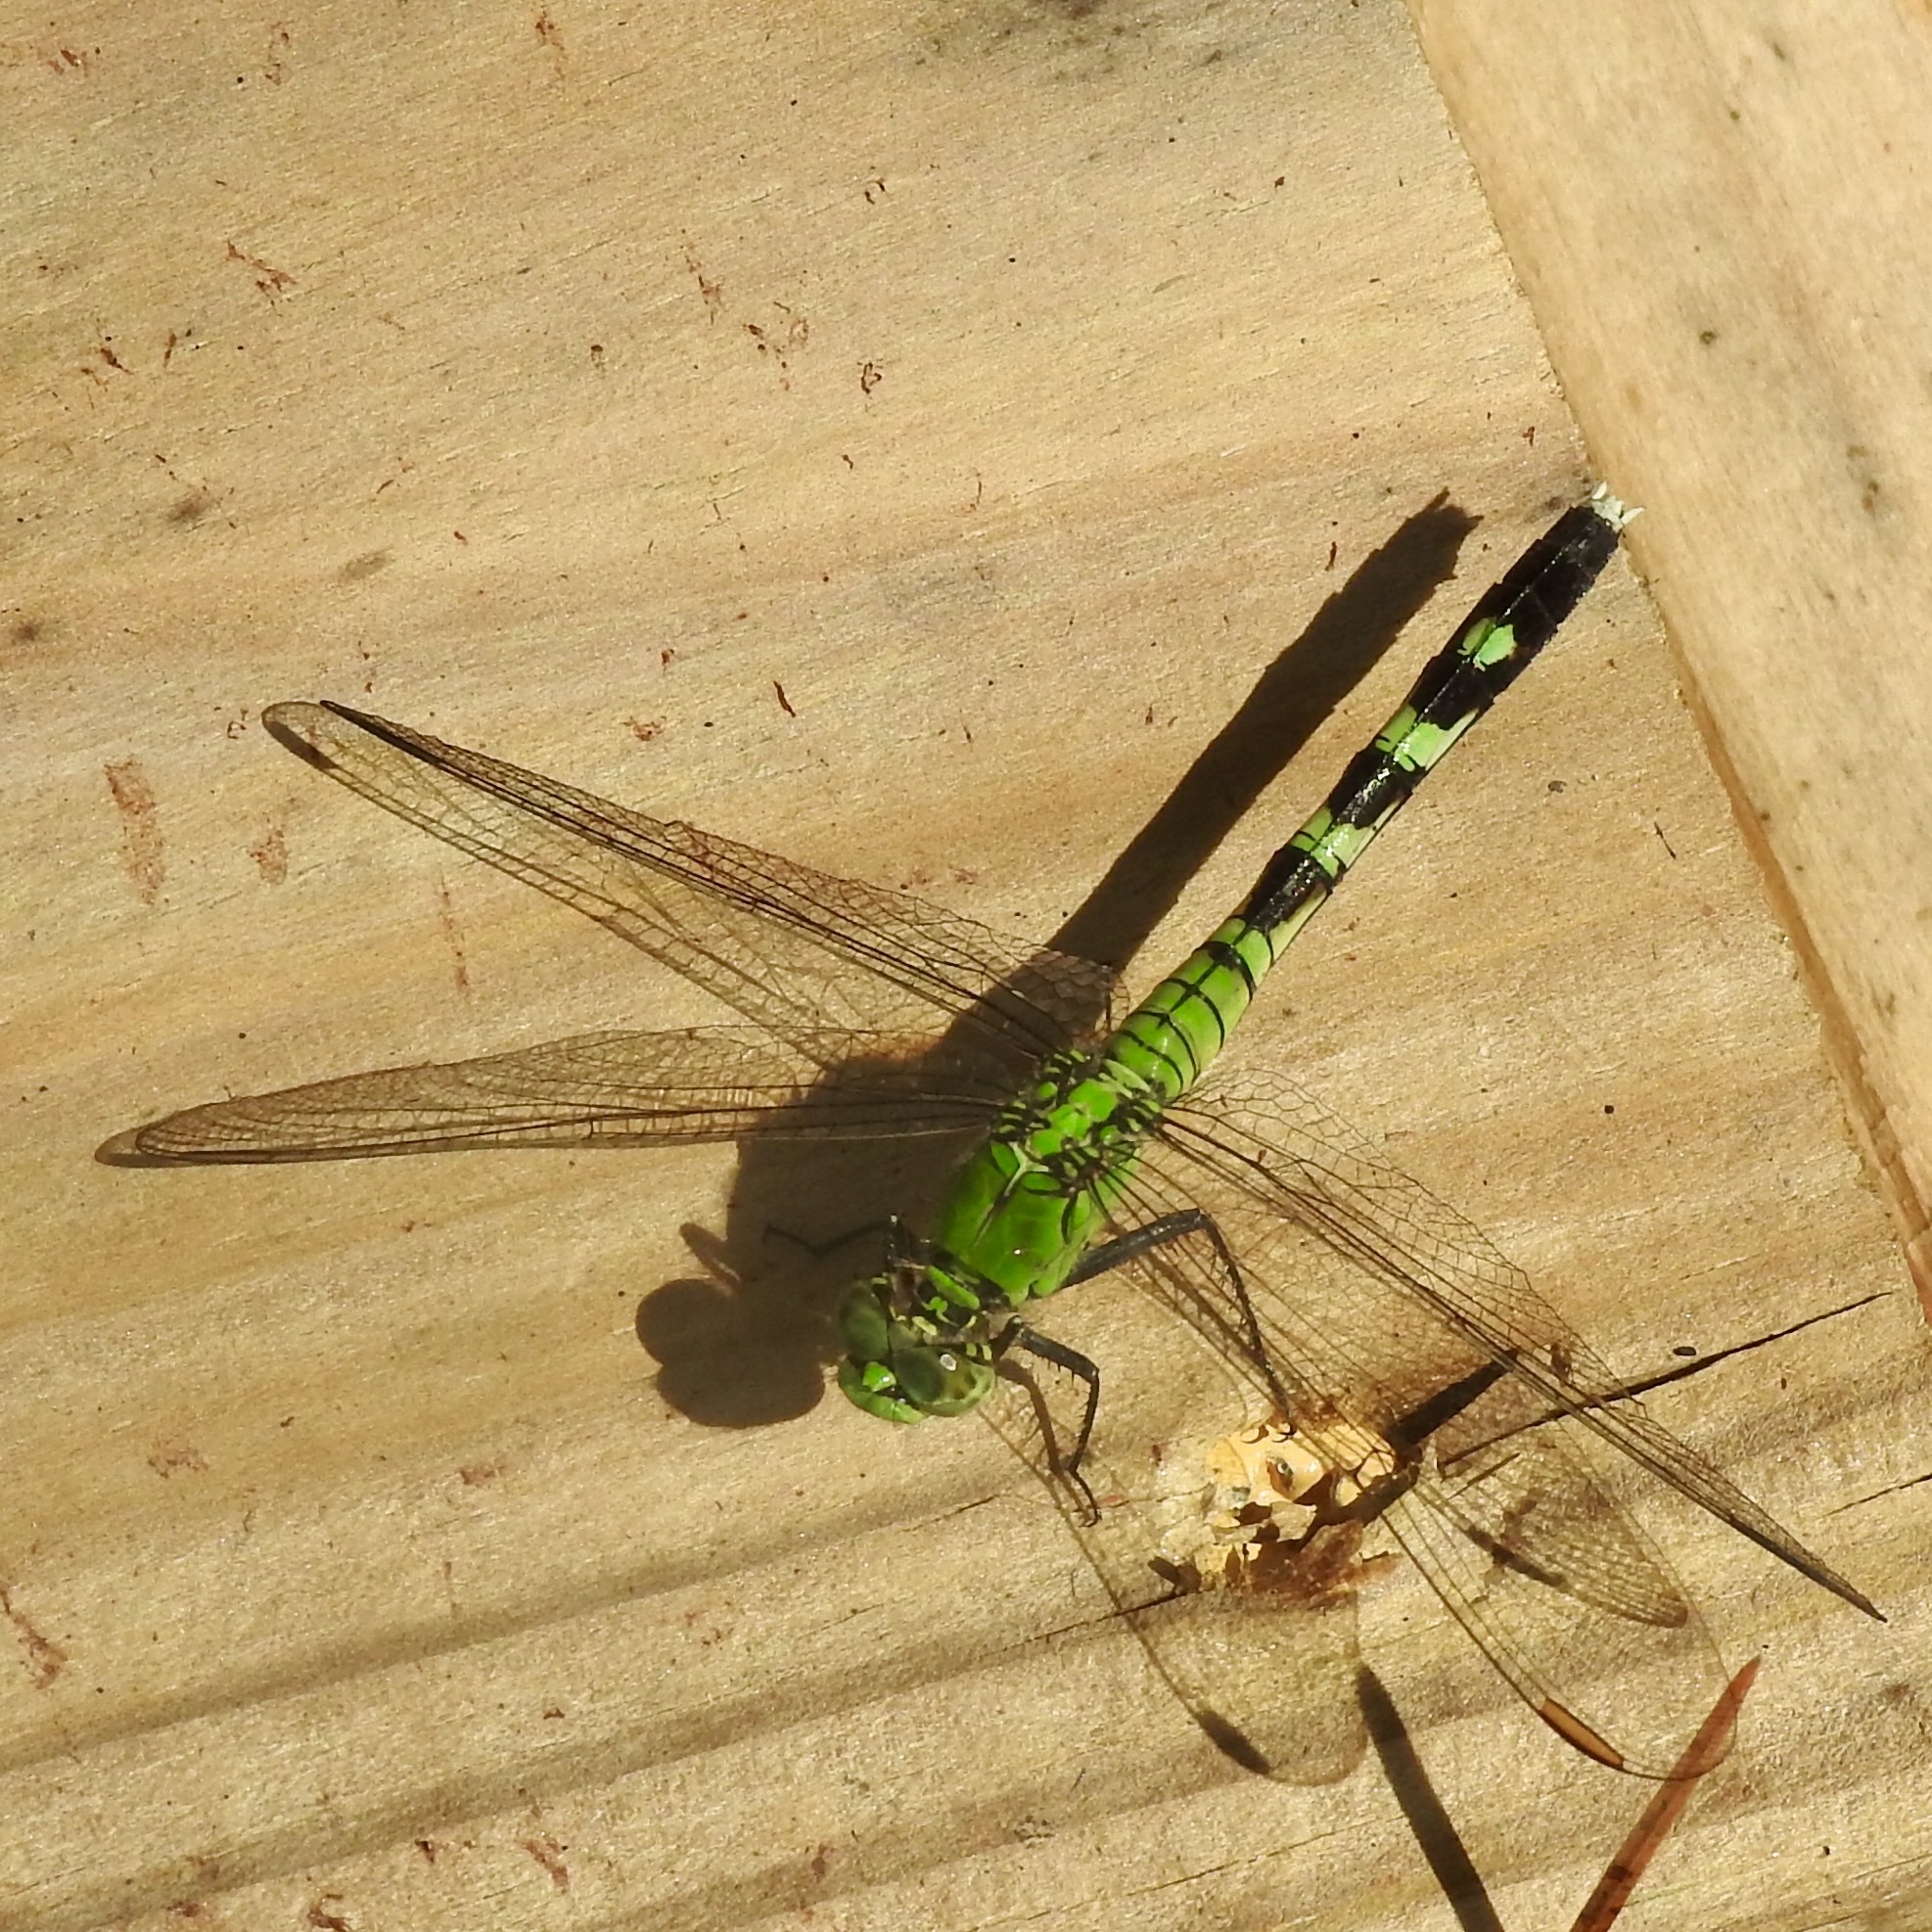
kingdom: Animalia
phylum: Arthropoda
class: Insecta
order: Odonata
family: Libellulidae
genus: Erythemis
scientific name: Erythemis simplicicollis
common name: Eastern pondhawk
